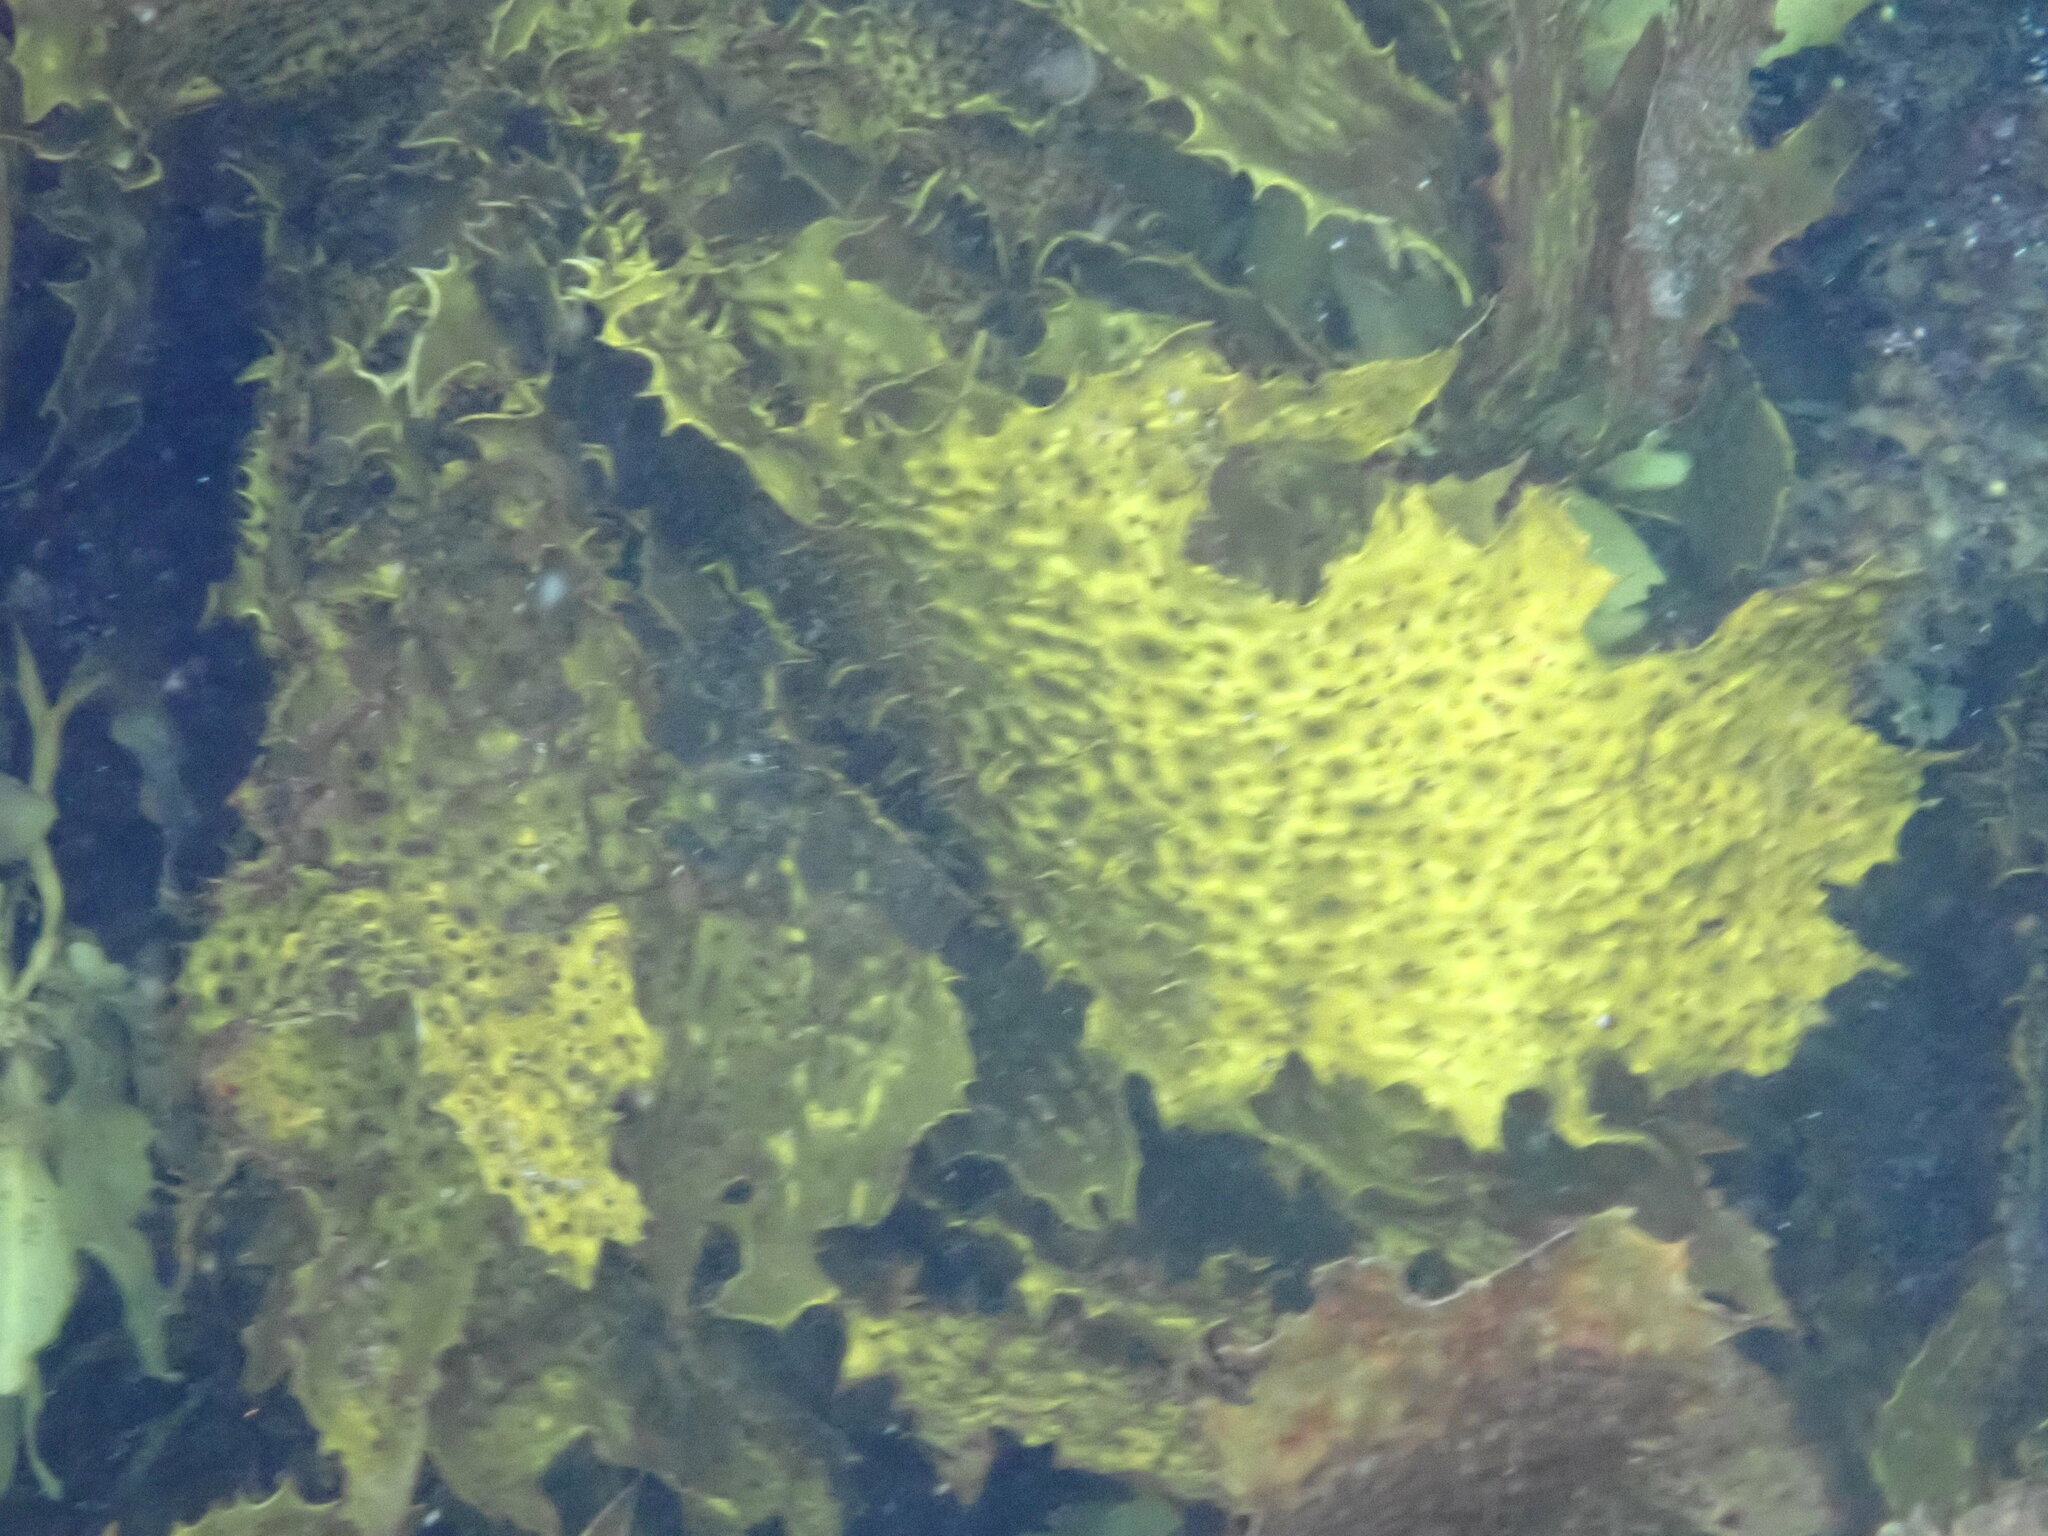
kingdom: Chromista
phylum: Ochrophyta
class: Phaeophyceae
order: Laminariales
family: Lessoniaceae
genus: Ecklonia
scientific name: Ecklonia radiata
